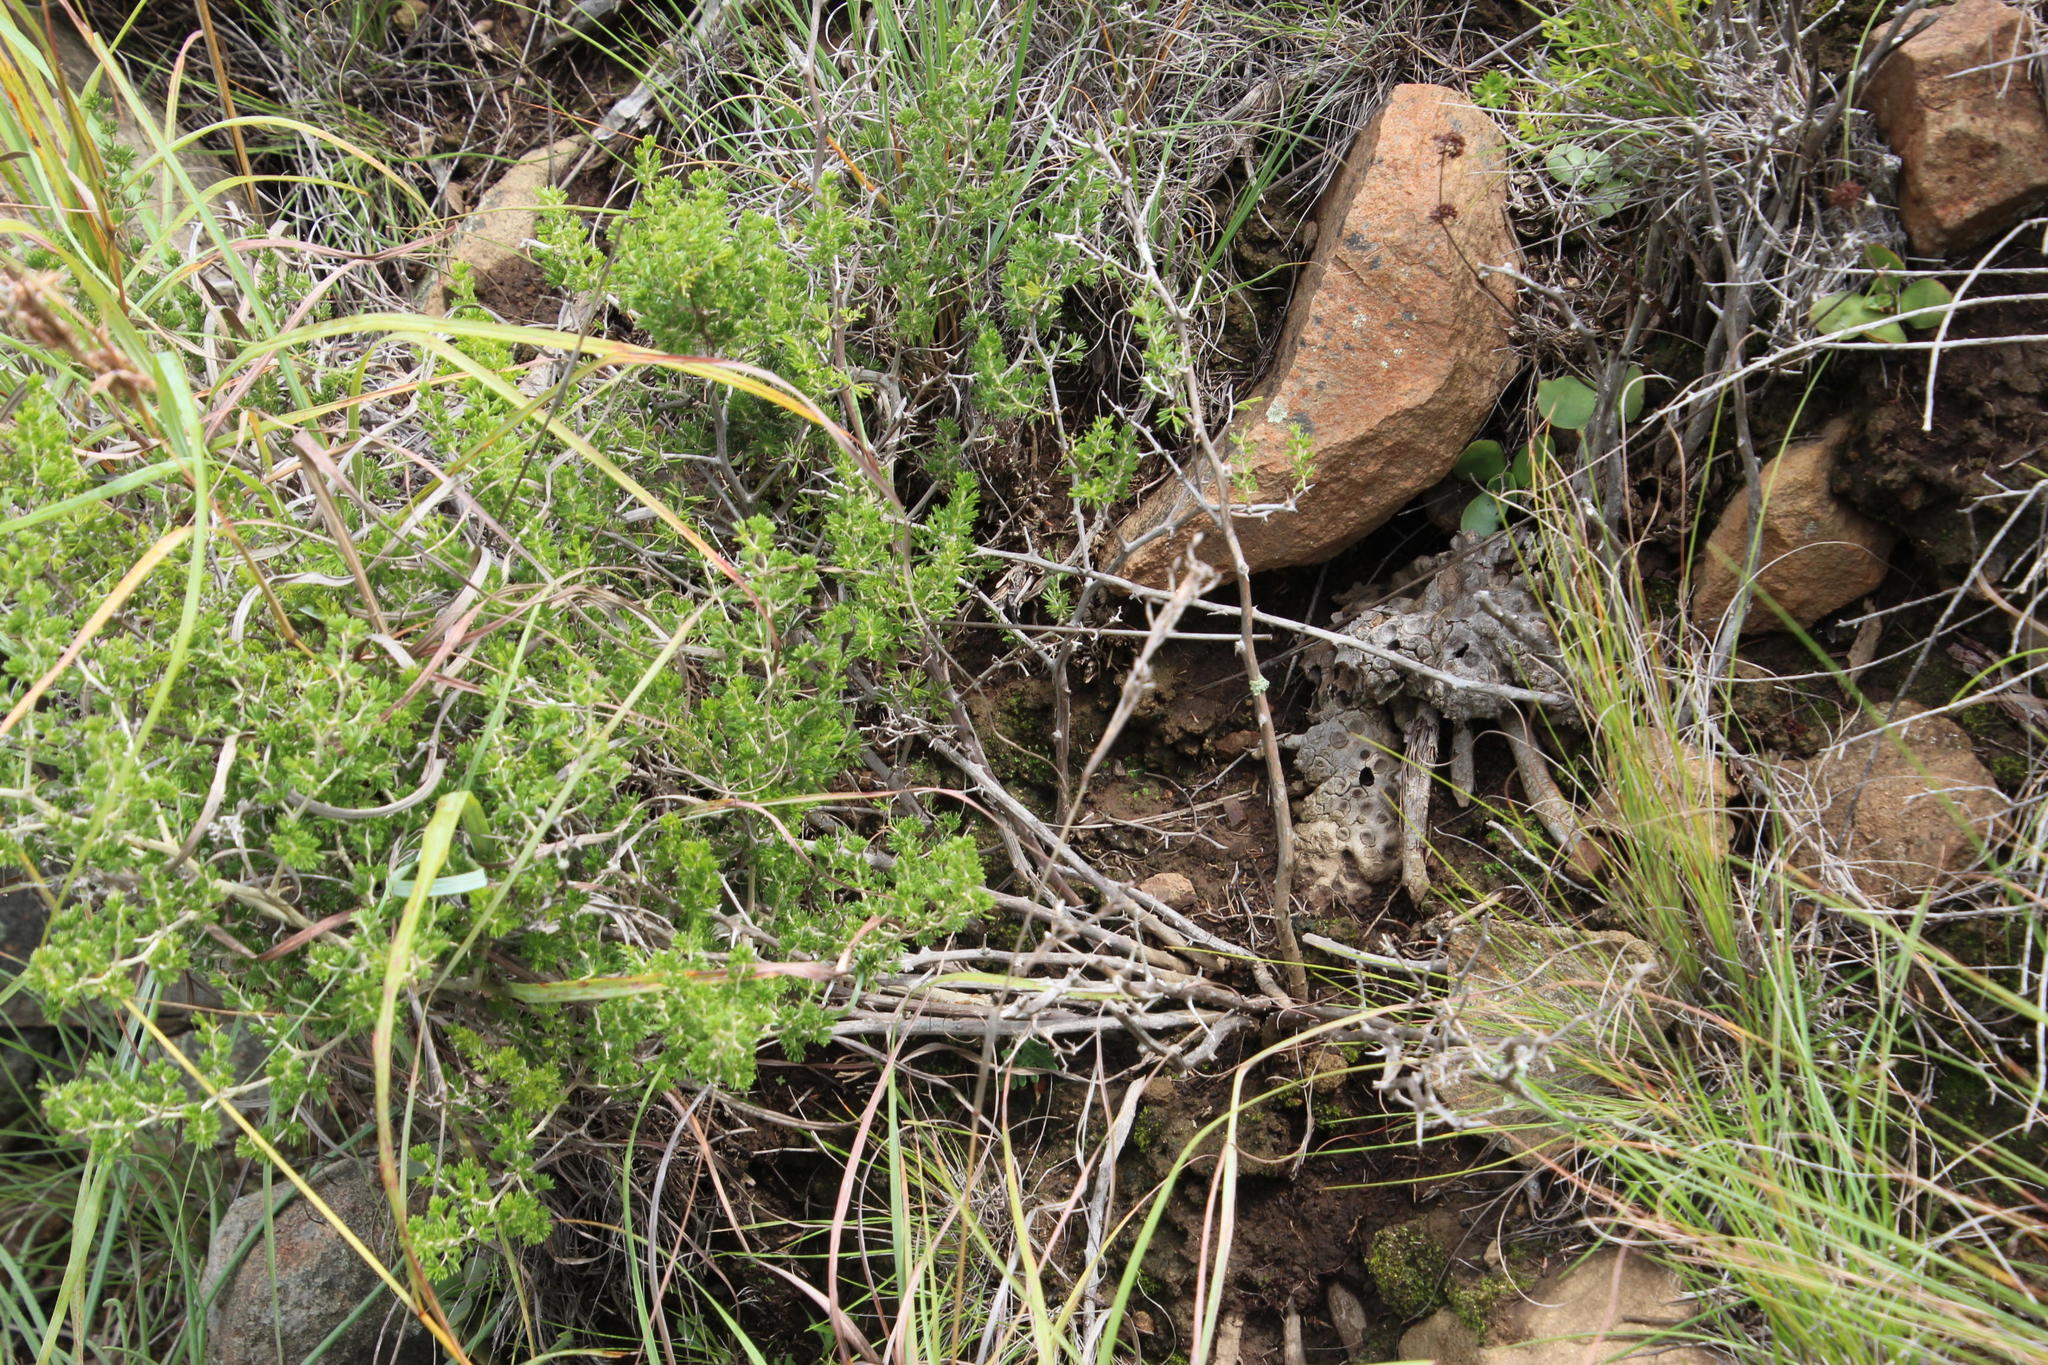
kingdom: Plantae
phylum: Tracheophyta
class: Liliopsida
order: Asparagales
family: Asparagaceae
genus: Asparagus
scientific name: Asparagus laricinus
